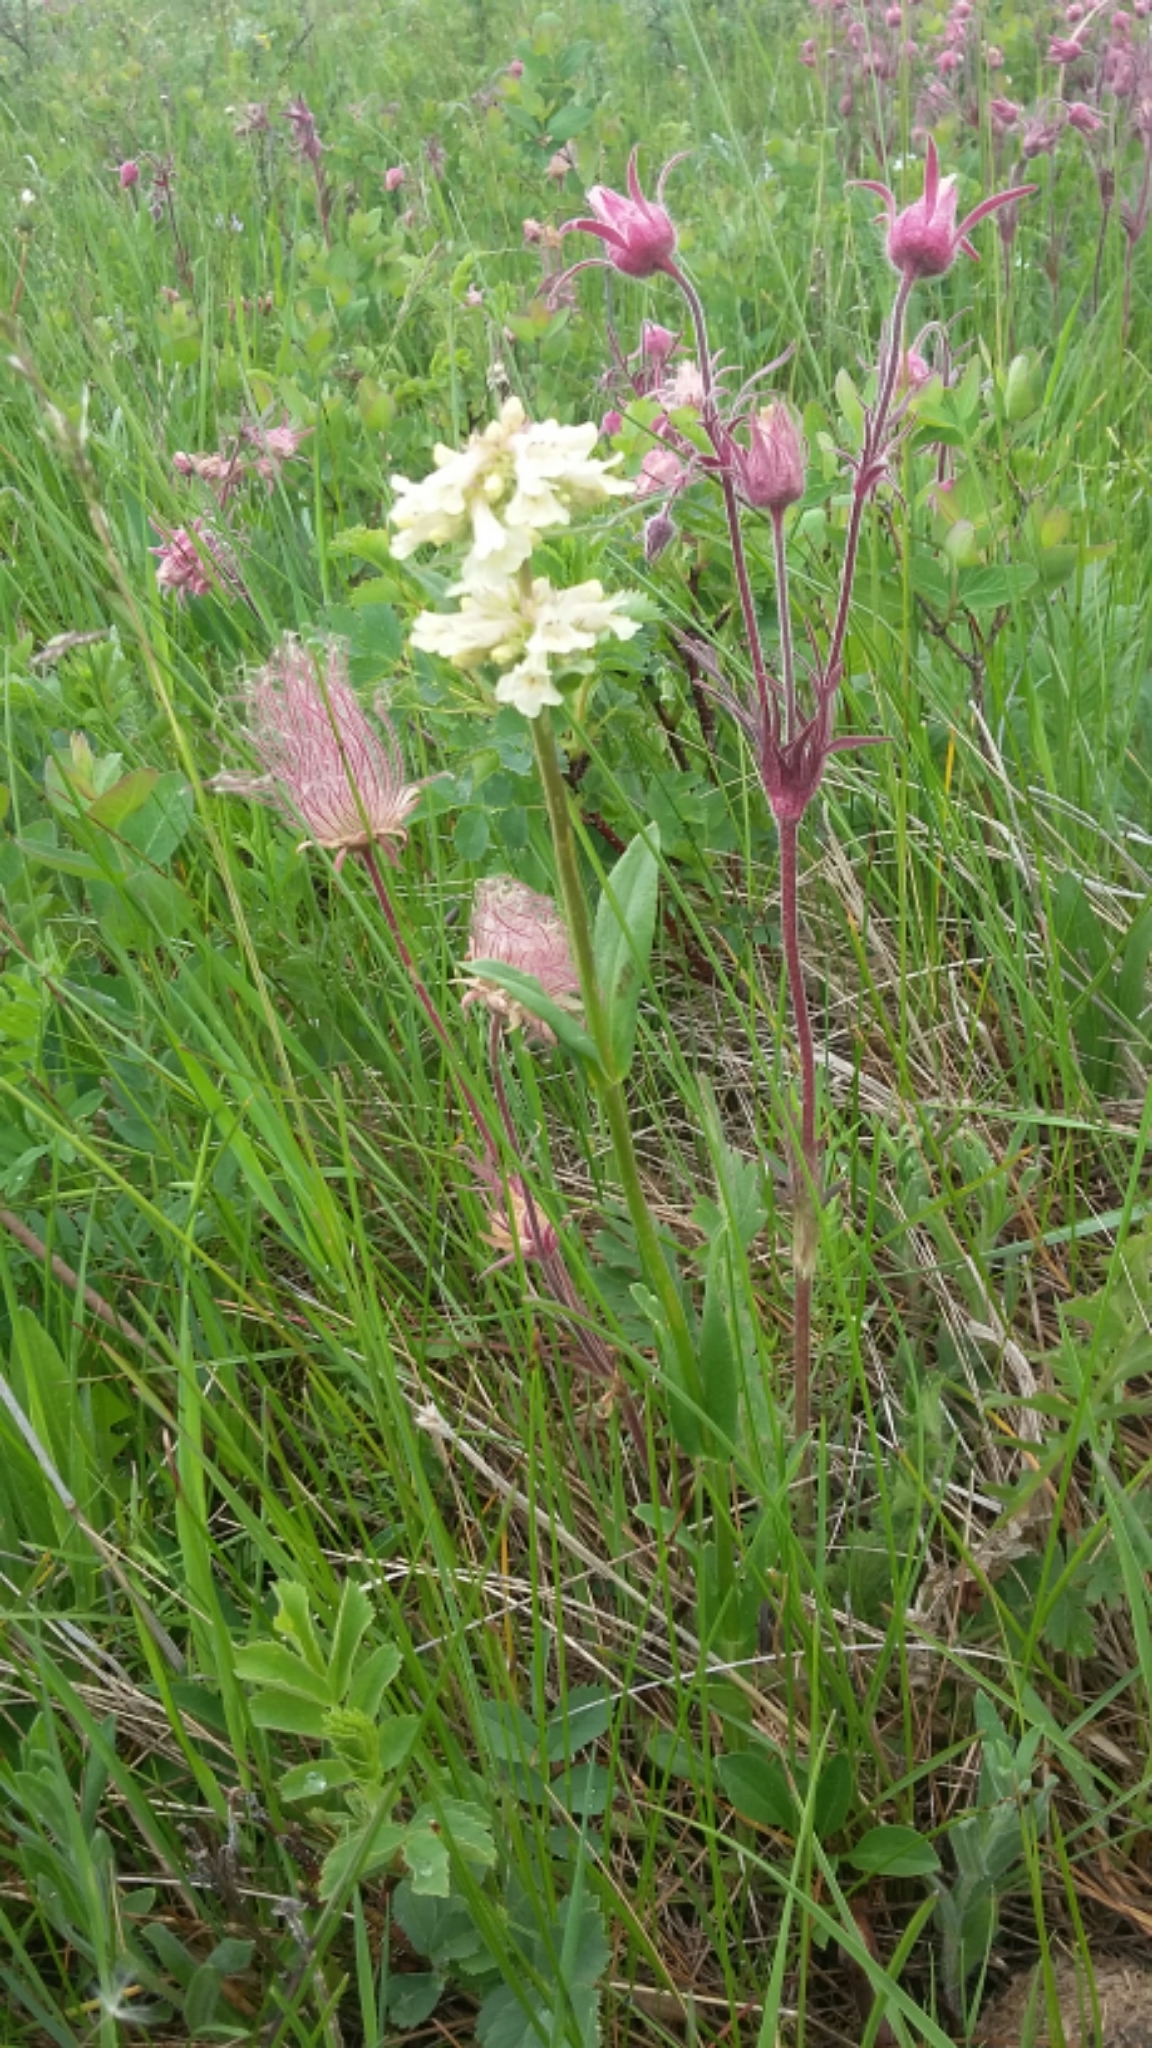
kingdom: Plantae
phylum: Tracheophyta
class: Magnoliopsida
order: Lamiales
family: Plantaginaceae
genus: Penstemon
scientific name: Penstemon confertus
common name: Lesser yellow beardtongue
